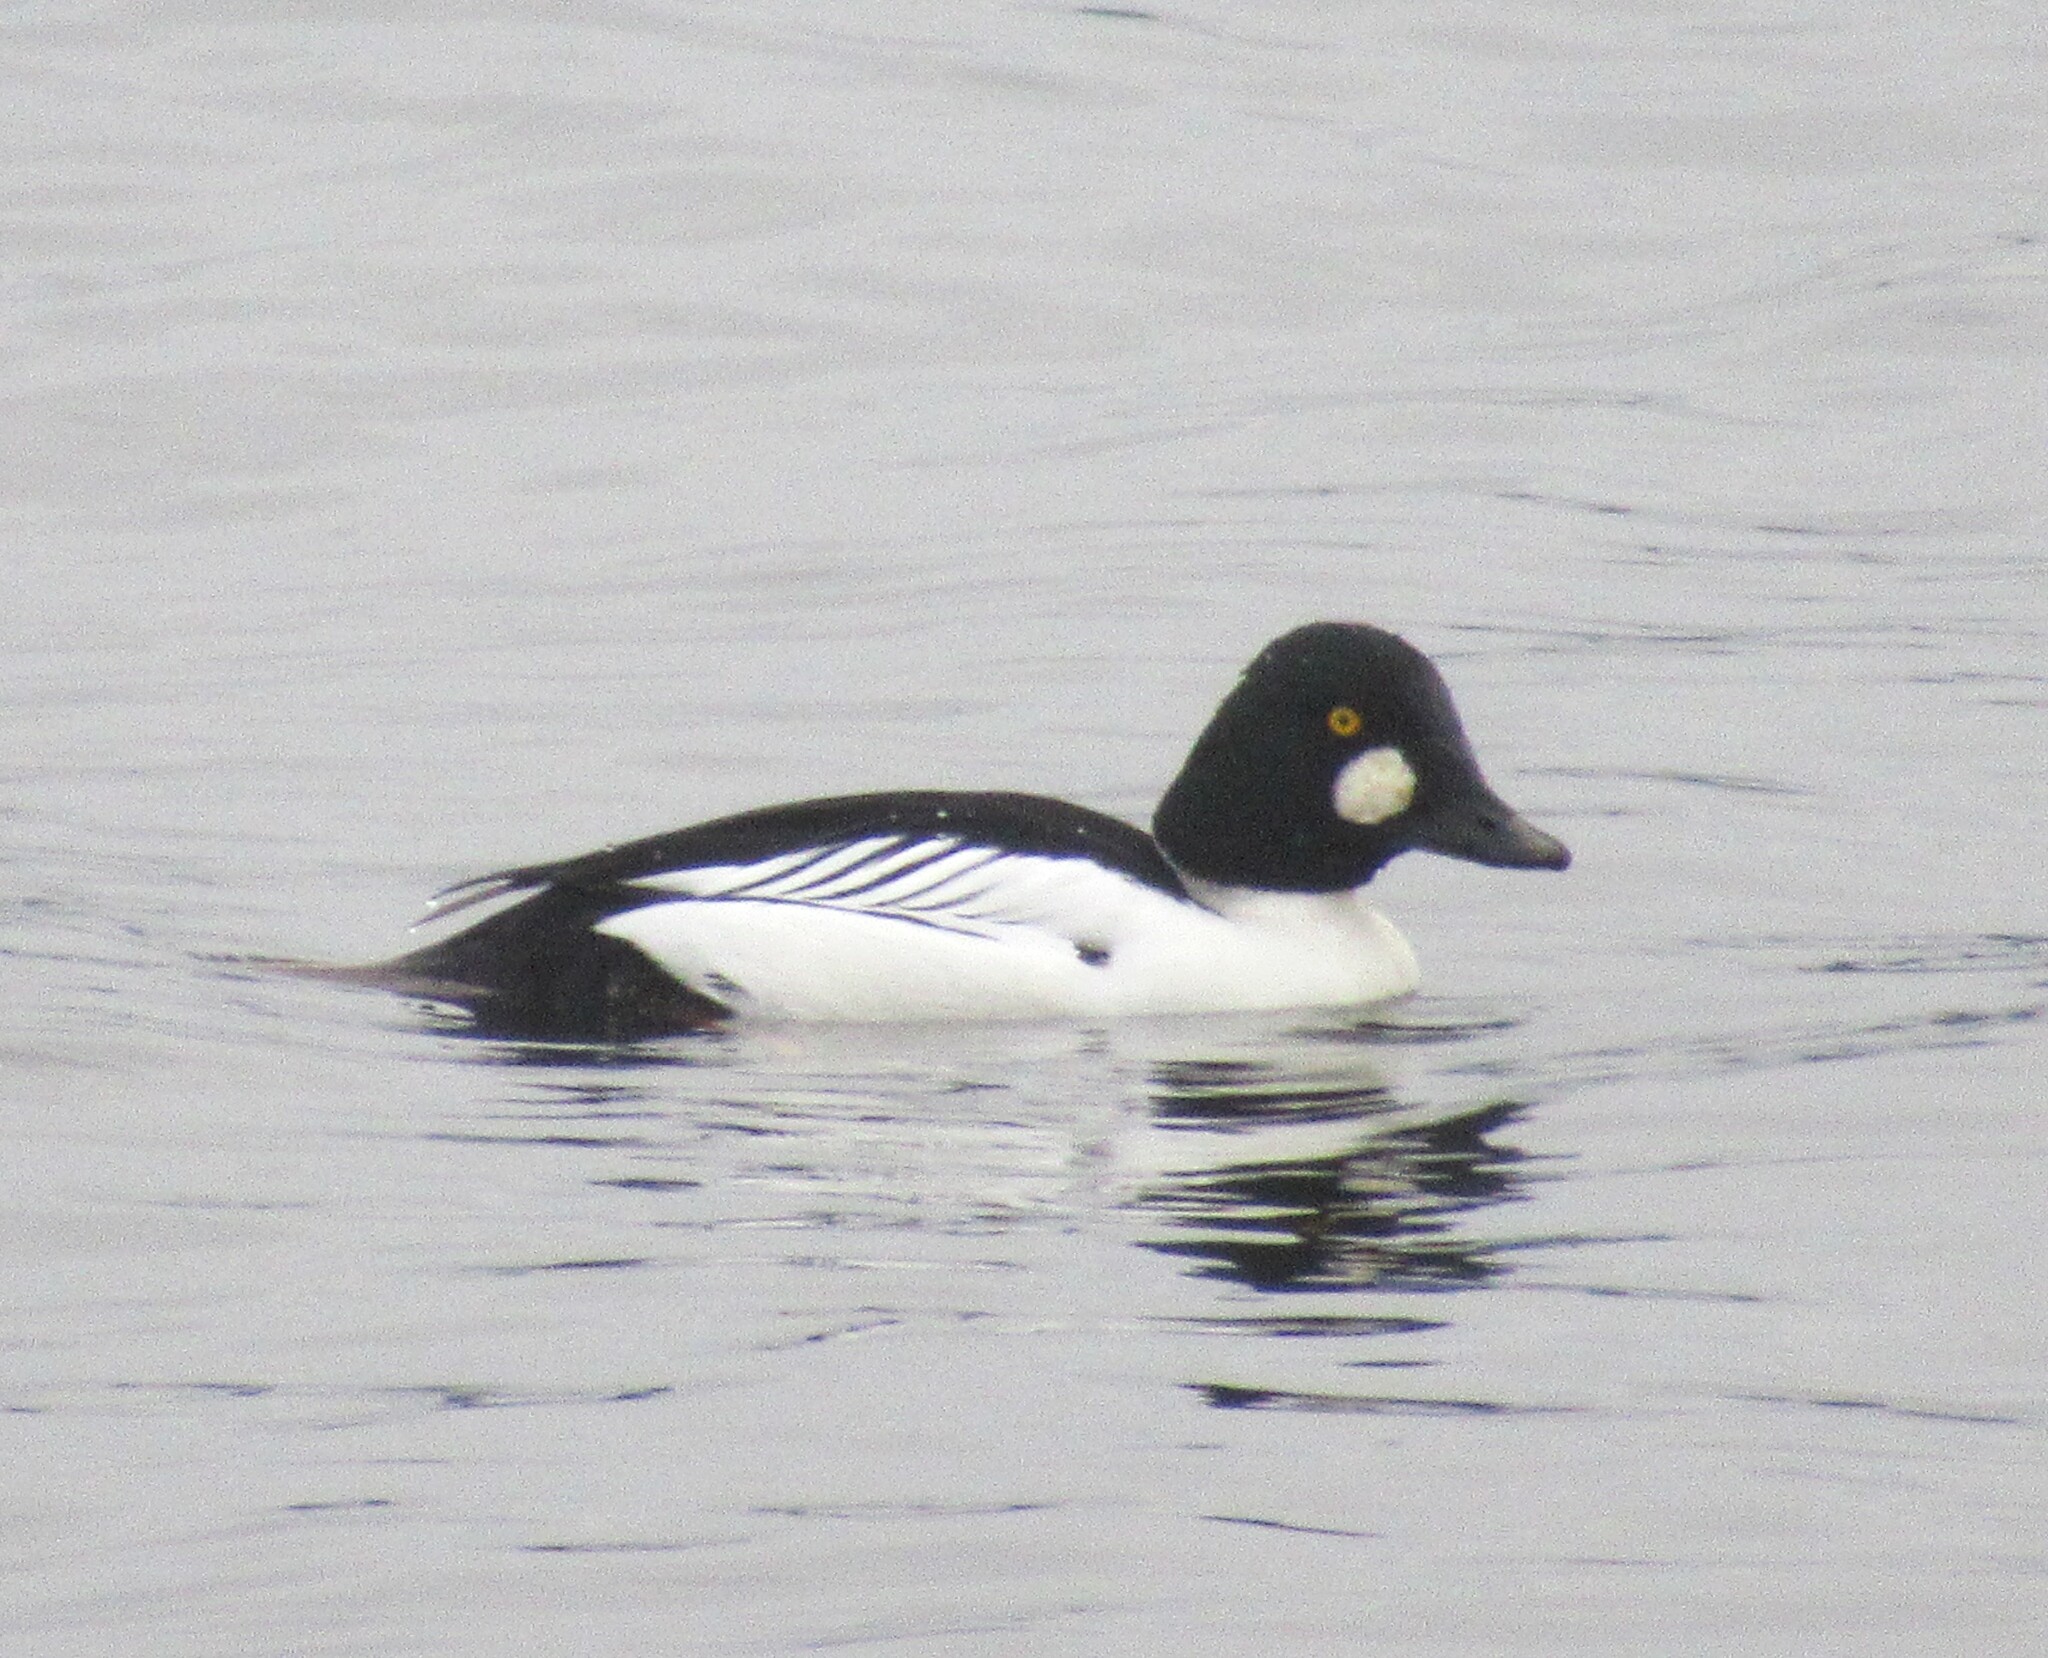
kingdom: Animalia
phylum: Chordata
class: Aves
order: Anseriformes
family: Anatidae
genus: Bucephala
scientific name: Bucephala clangula
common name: Common goldeneye
